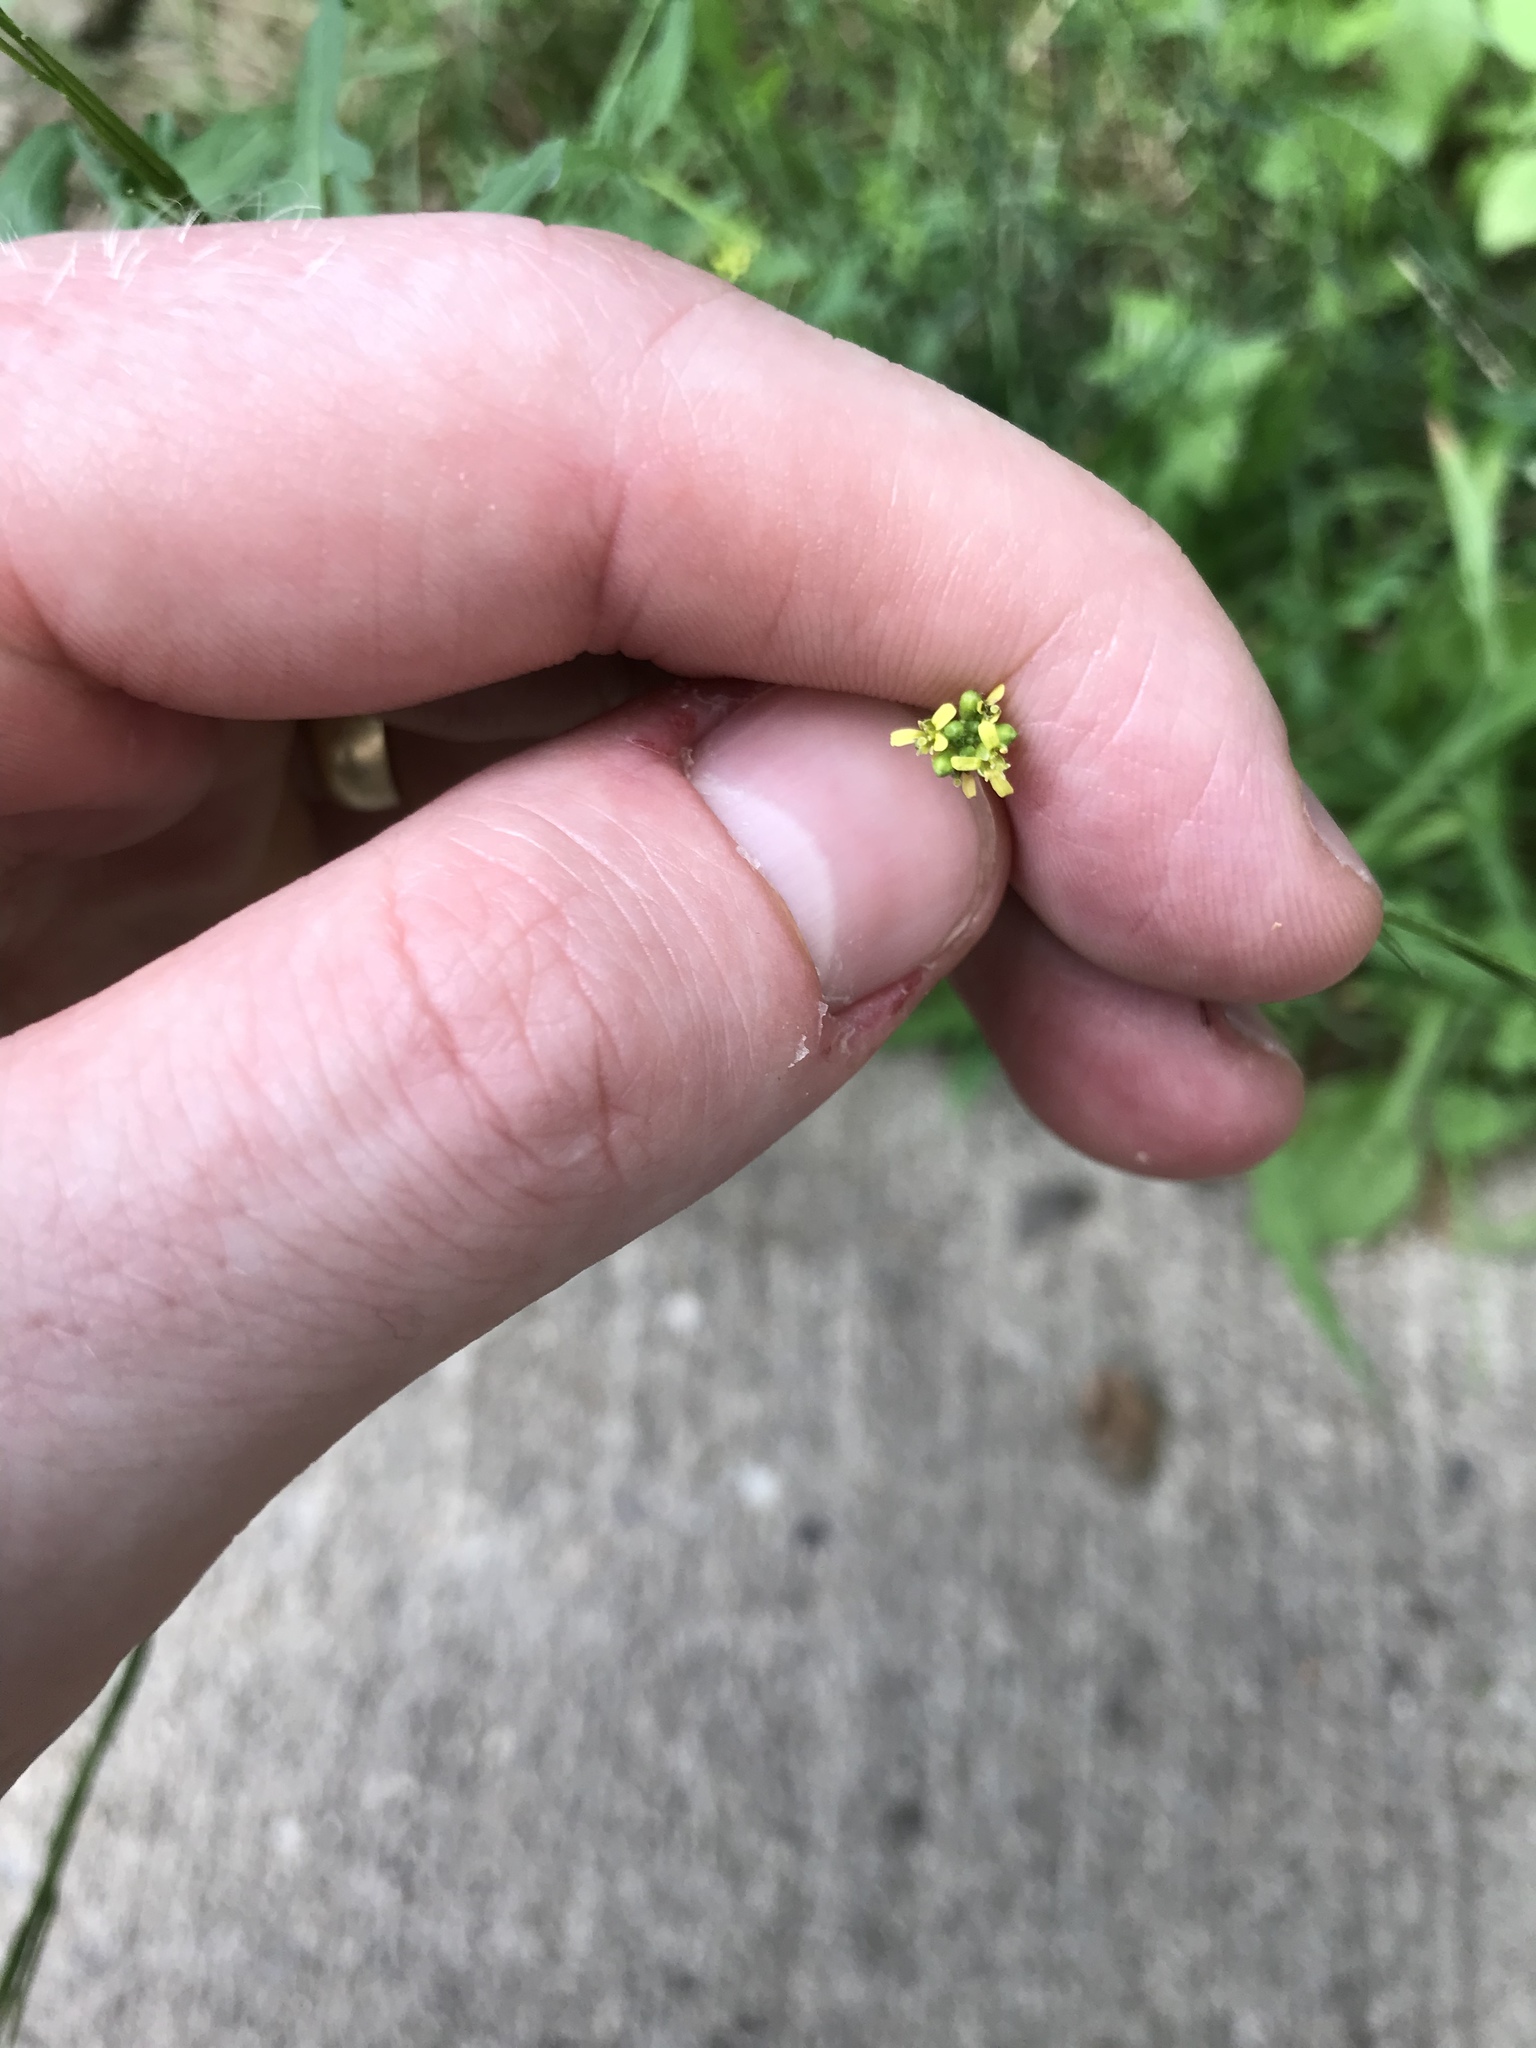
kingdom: Plantae
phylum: Tracheophyta
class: Magnoliopsida
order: Brassicales
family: Brassicaceae
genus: Sisymbrium
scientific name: Sisymbrium officinale
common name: Hedge mustard
